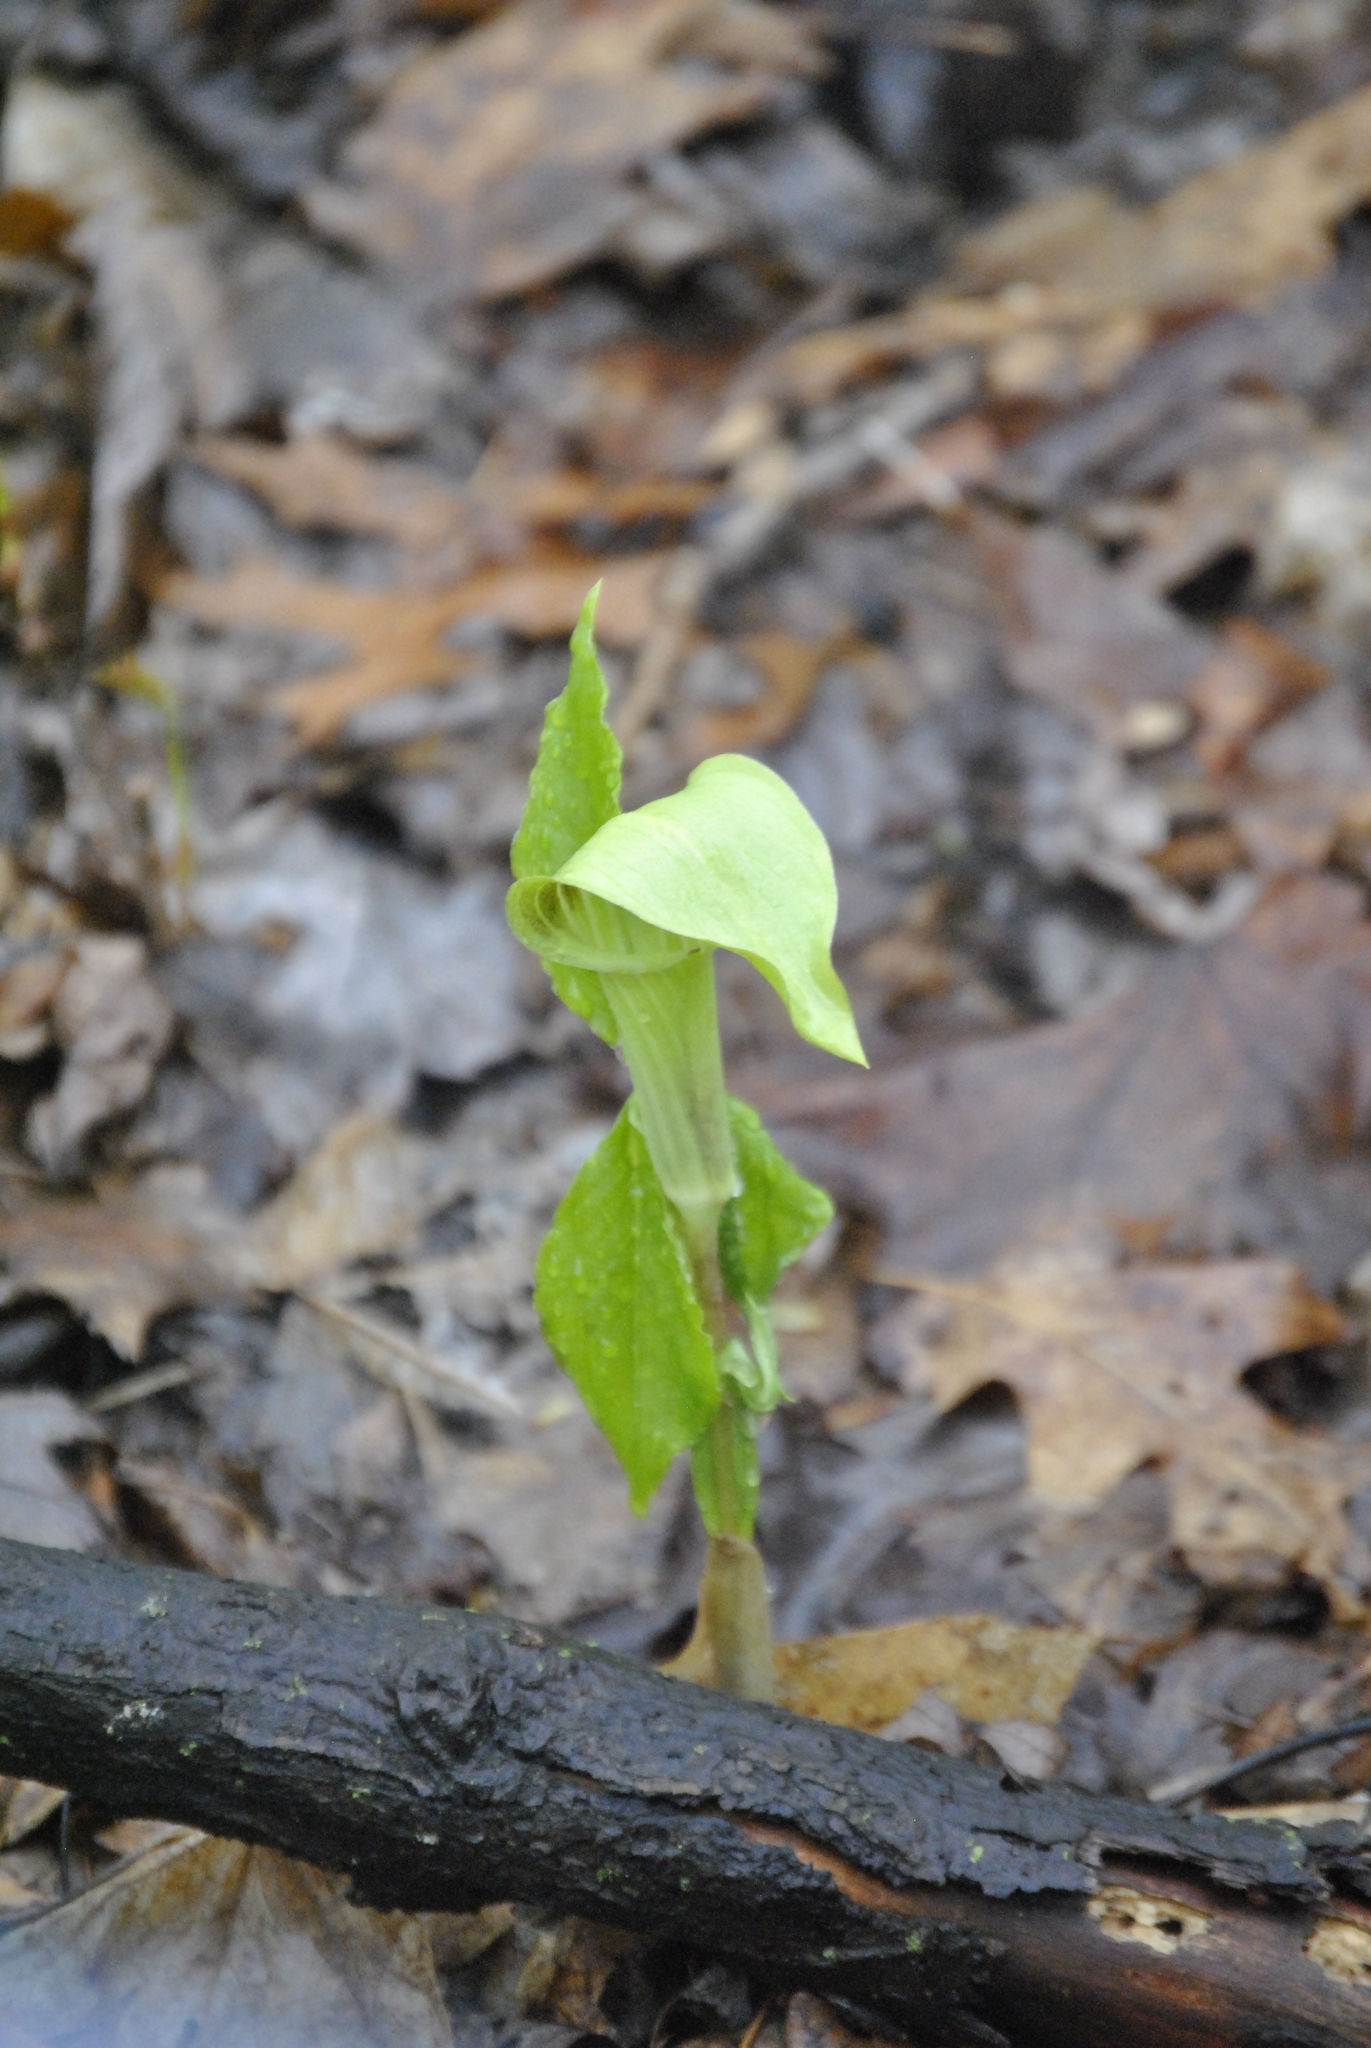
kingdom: Plantae
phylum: Tracheophyta
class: Liliopsida
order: Alismatales
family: Araceae
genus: Arisaema
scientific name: Arisaema triphyllum
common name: Jack-in-the-pulpit
